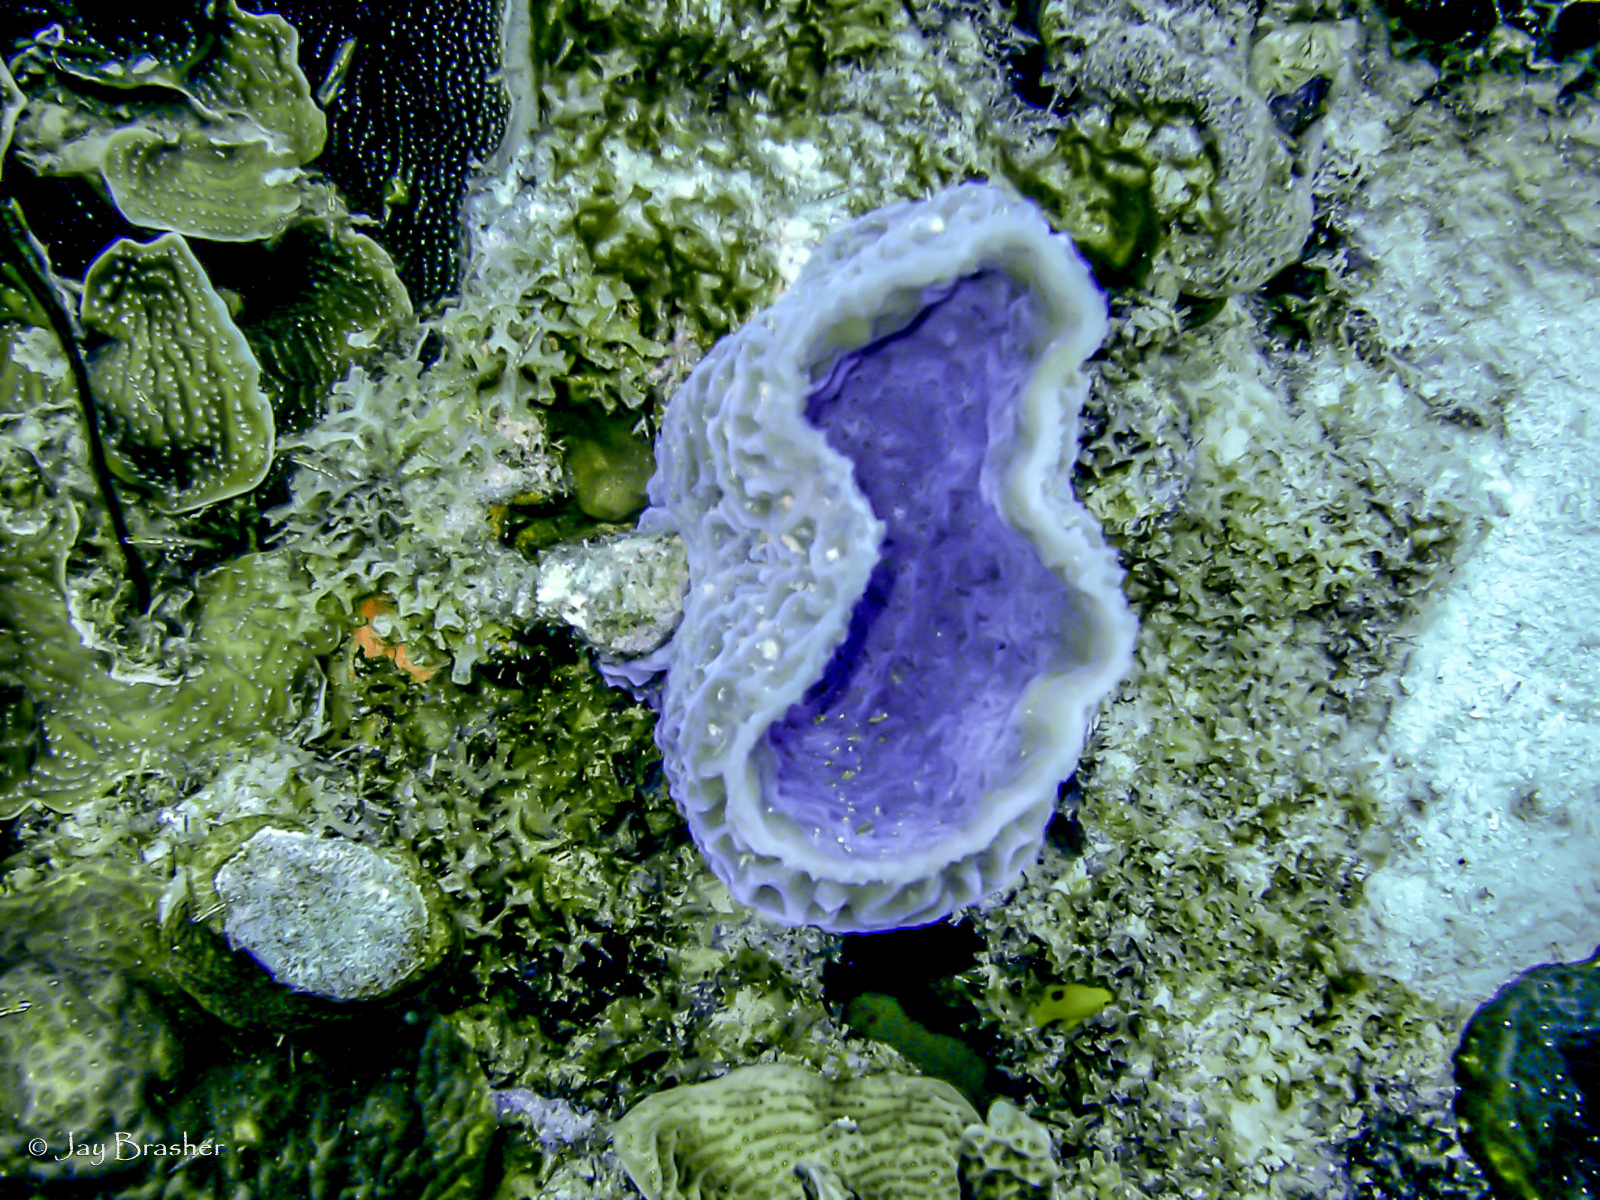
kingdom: Animalia
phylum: Porifera
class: Demospongiae
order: Haplosclerida
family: Callyspongiidae
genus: Callyspongia
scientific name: Callyspongia plicifera
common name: Azure vase sponge
